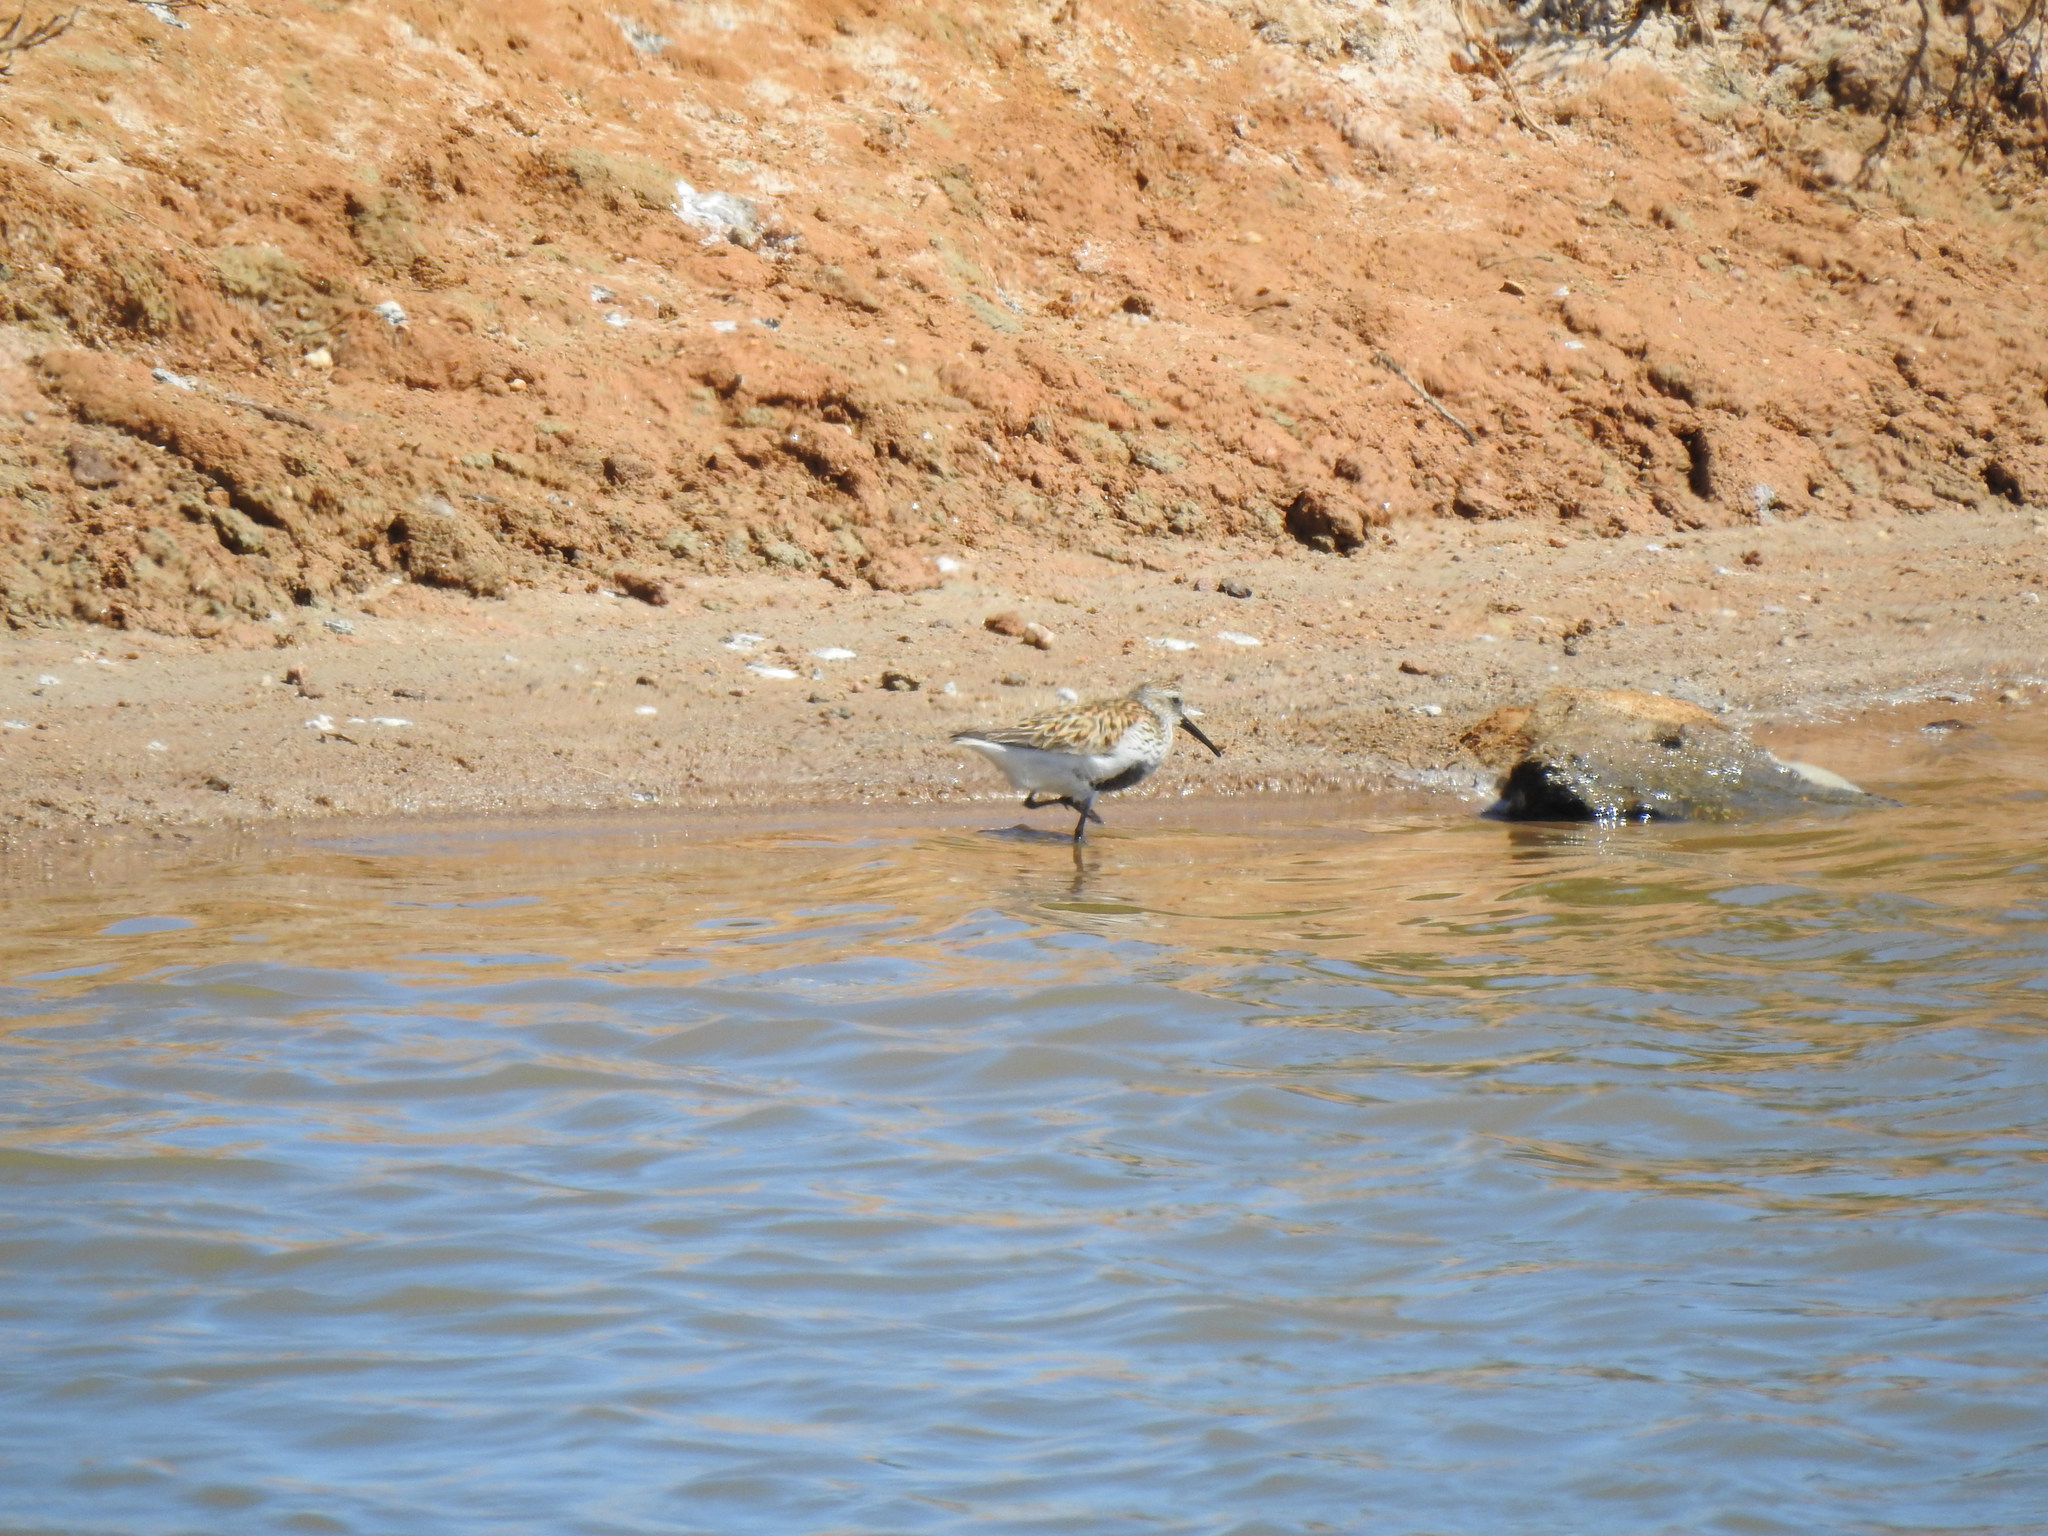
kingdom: Animalia
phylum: Chordata
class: Aves
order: Charadriiformes
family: Scolopacidae
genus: Calidris
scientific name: Calidris alpina
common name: Dunlin
